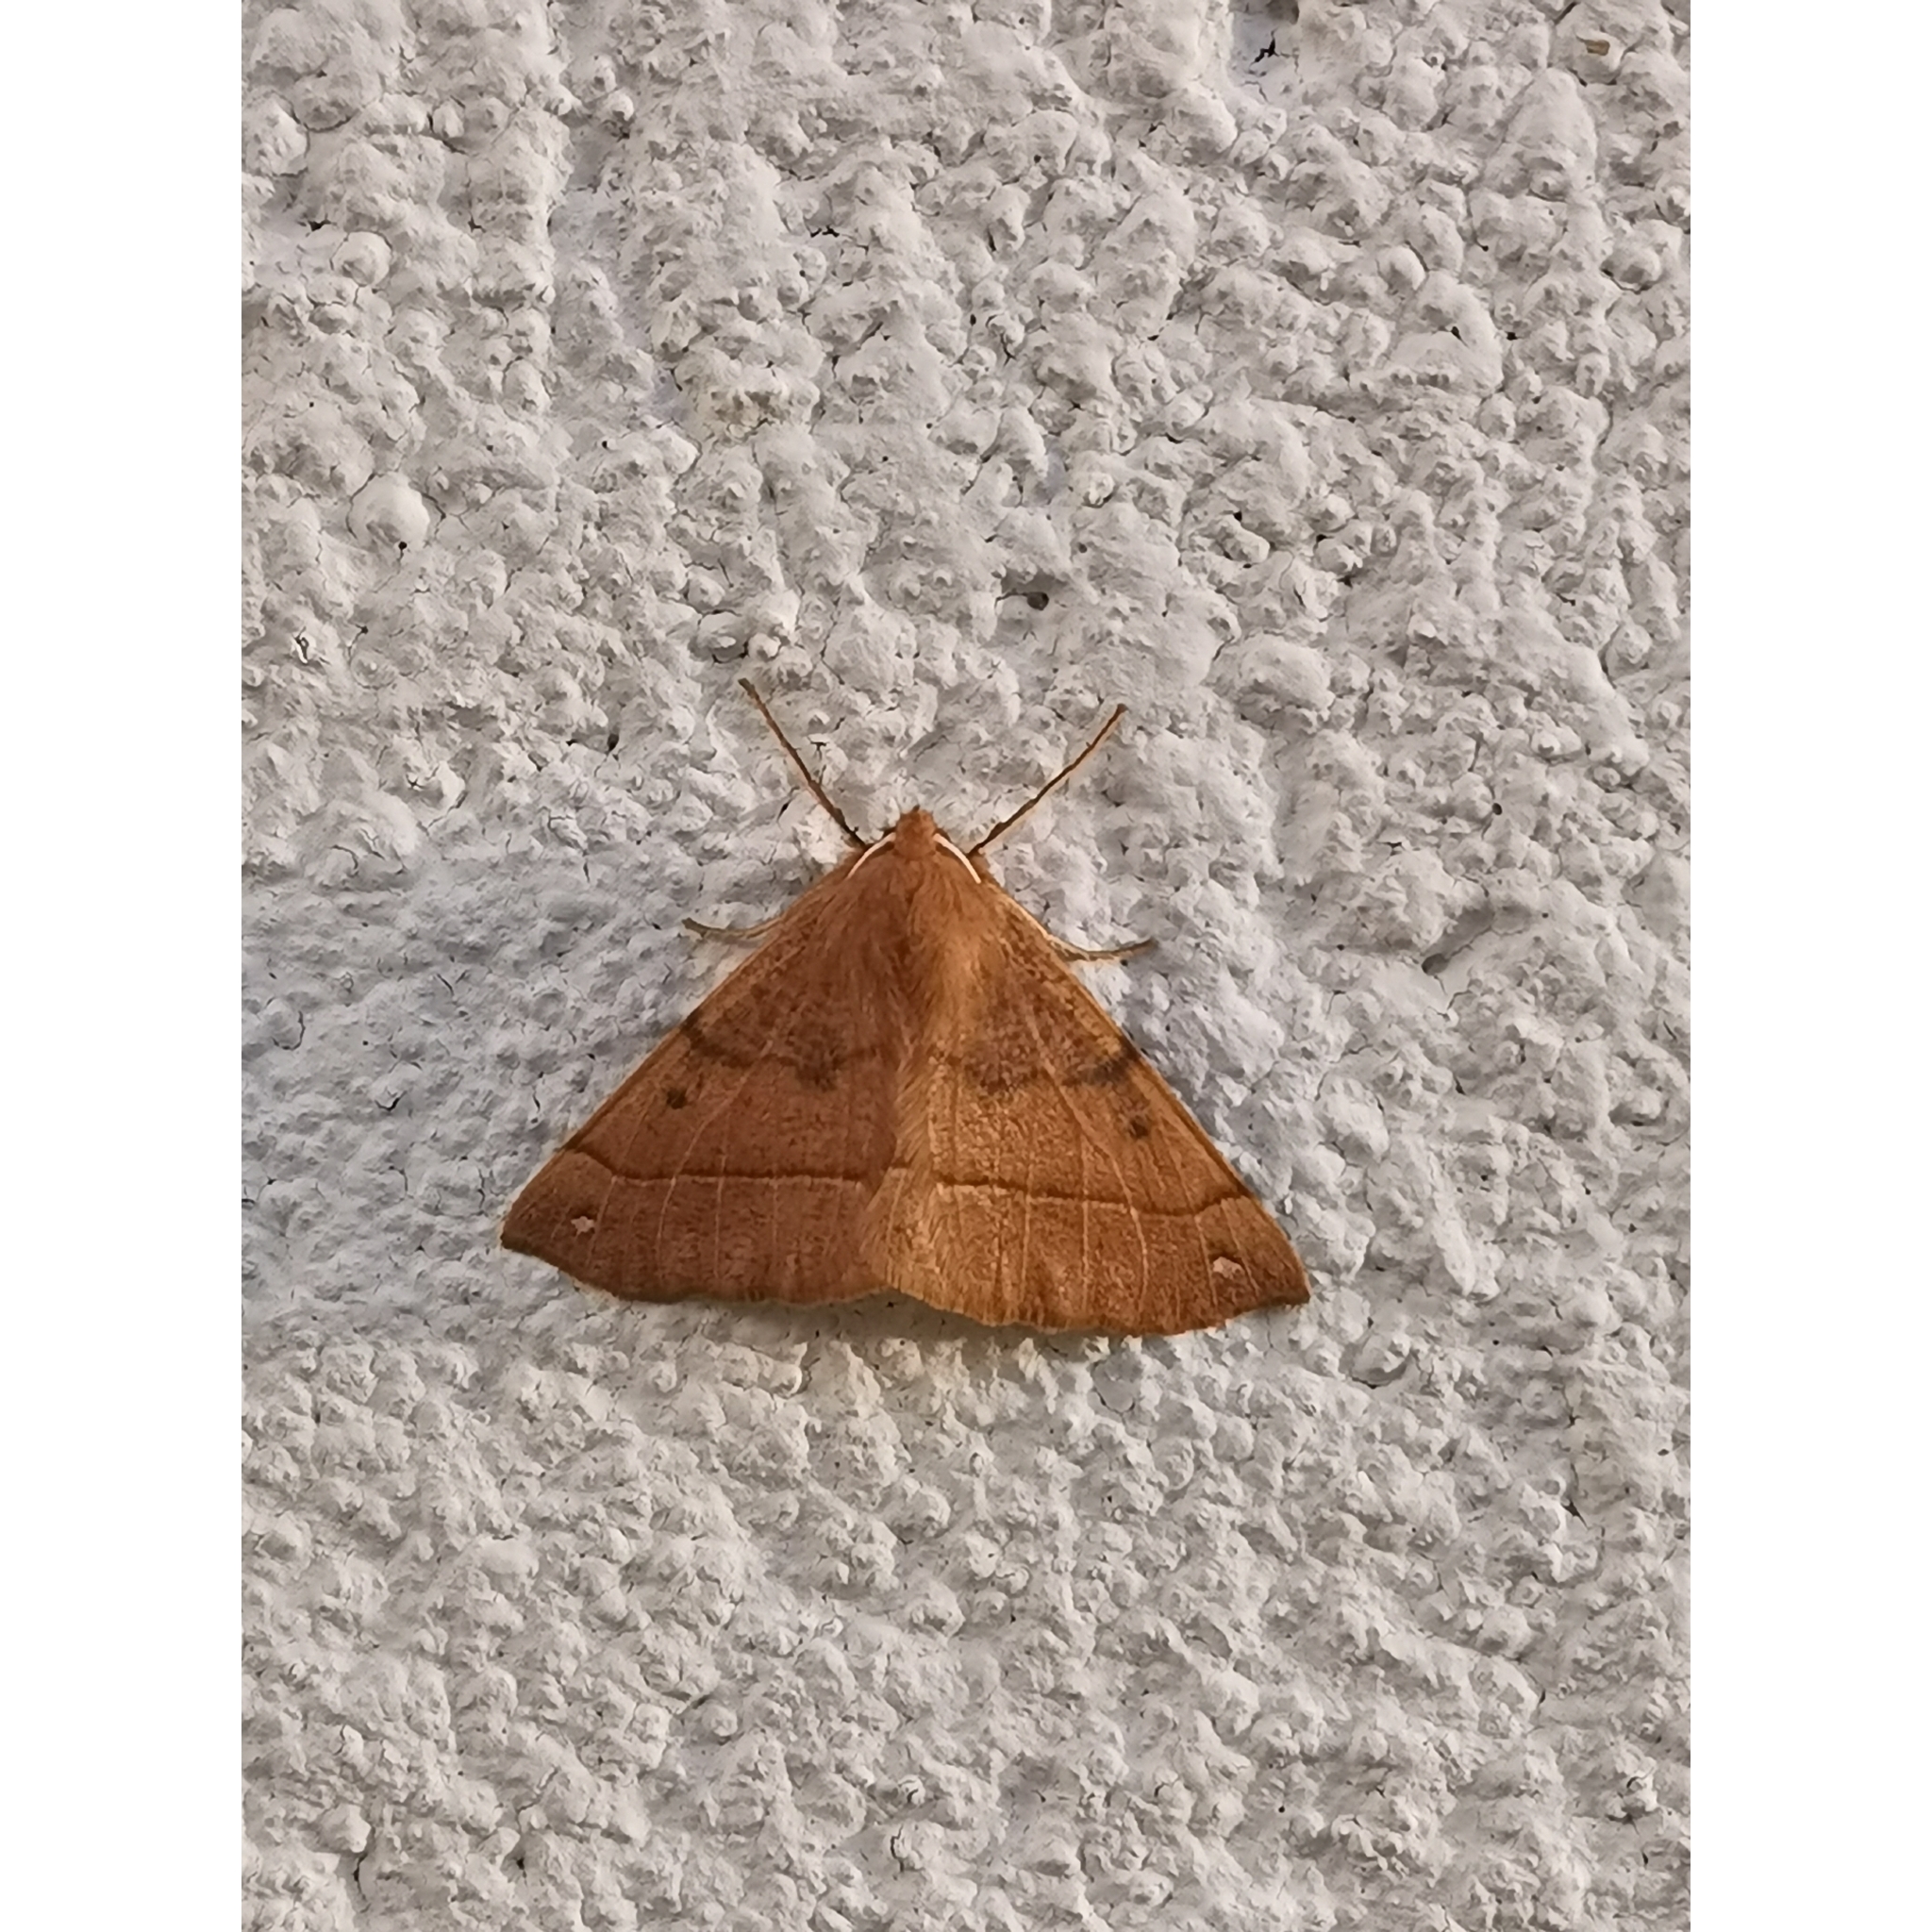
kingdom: Animalia
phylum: Arthropoda
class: Insecta
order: Lepidoptera
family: Geometridae
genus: Colotois
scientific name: Colotois pennaria
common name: Feathered thorn
